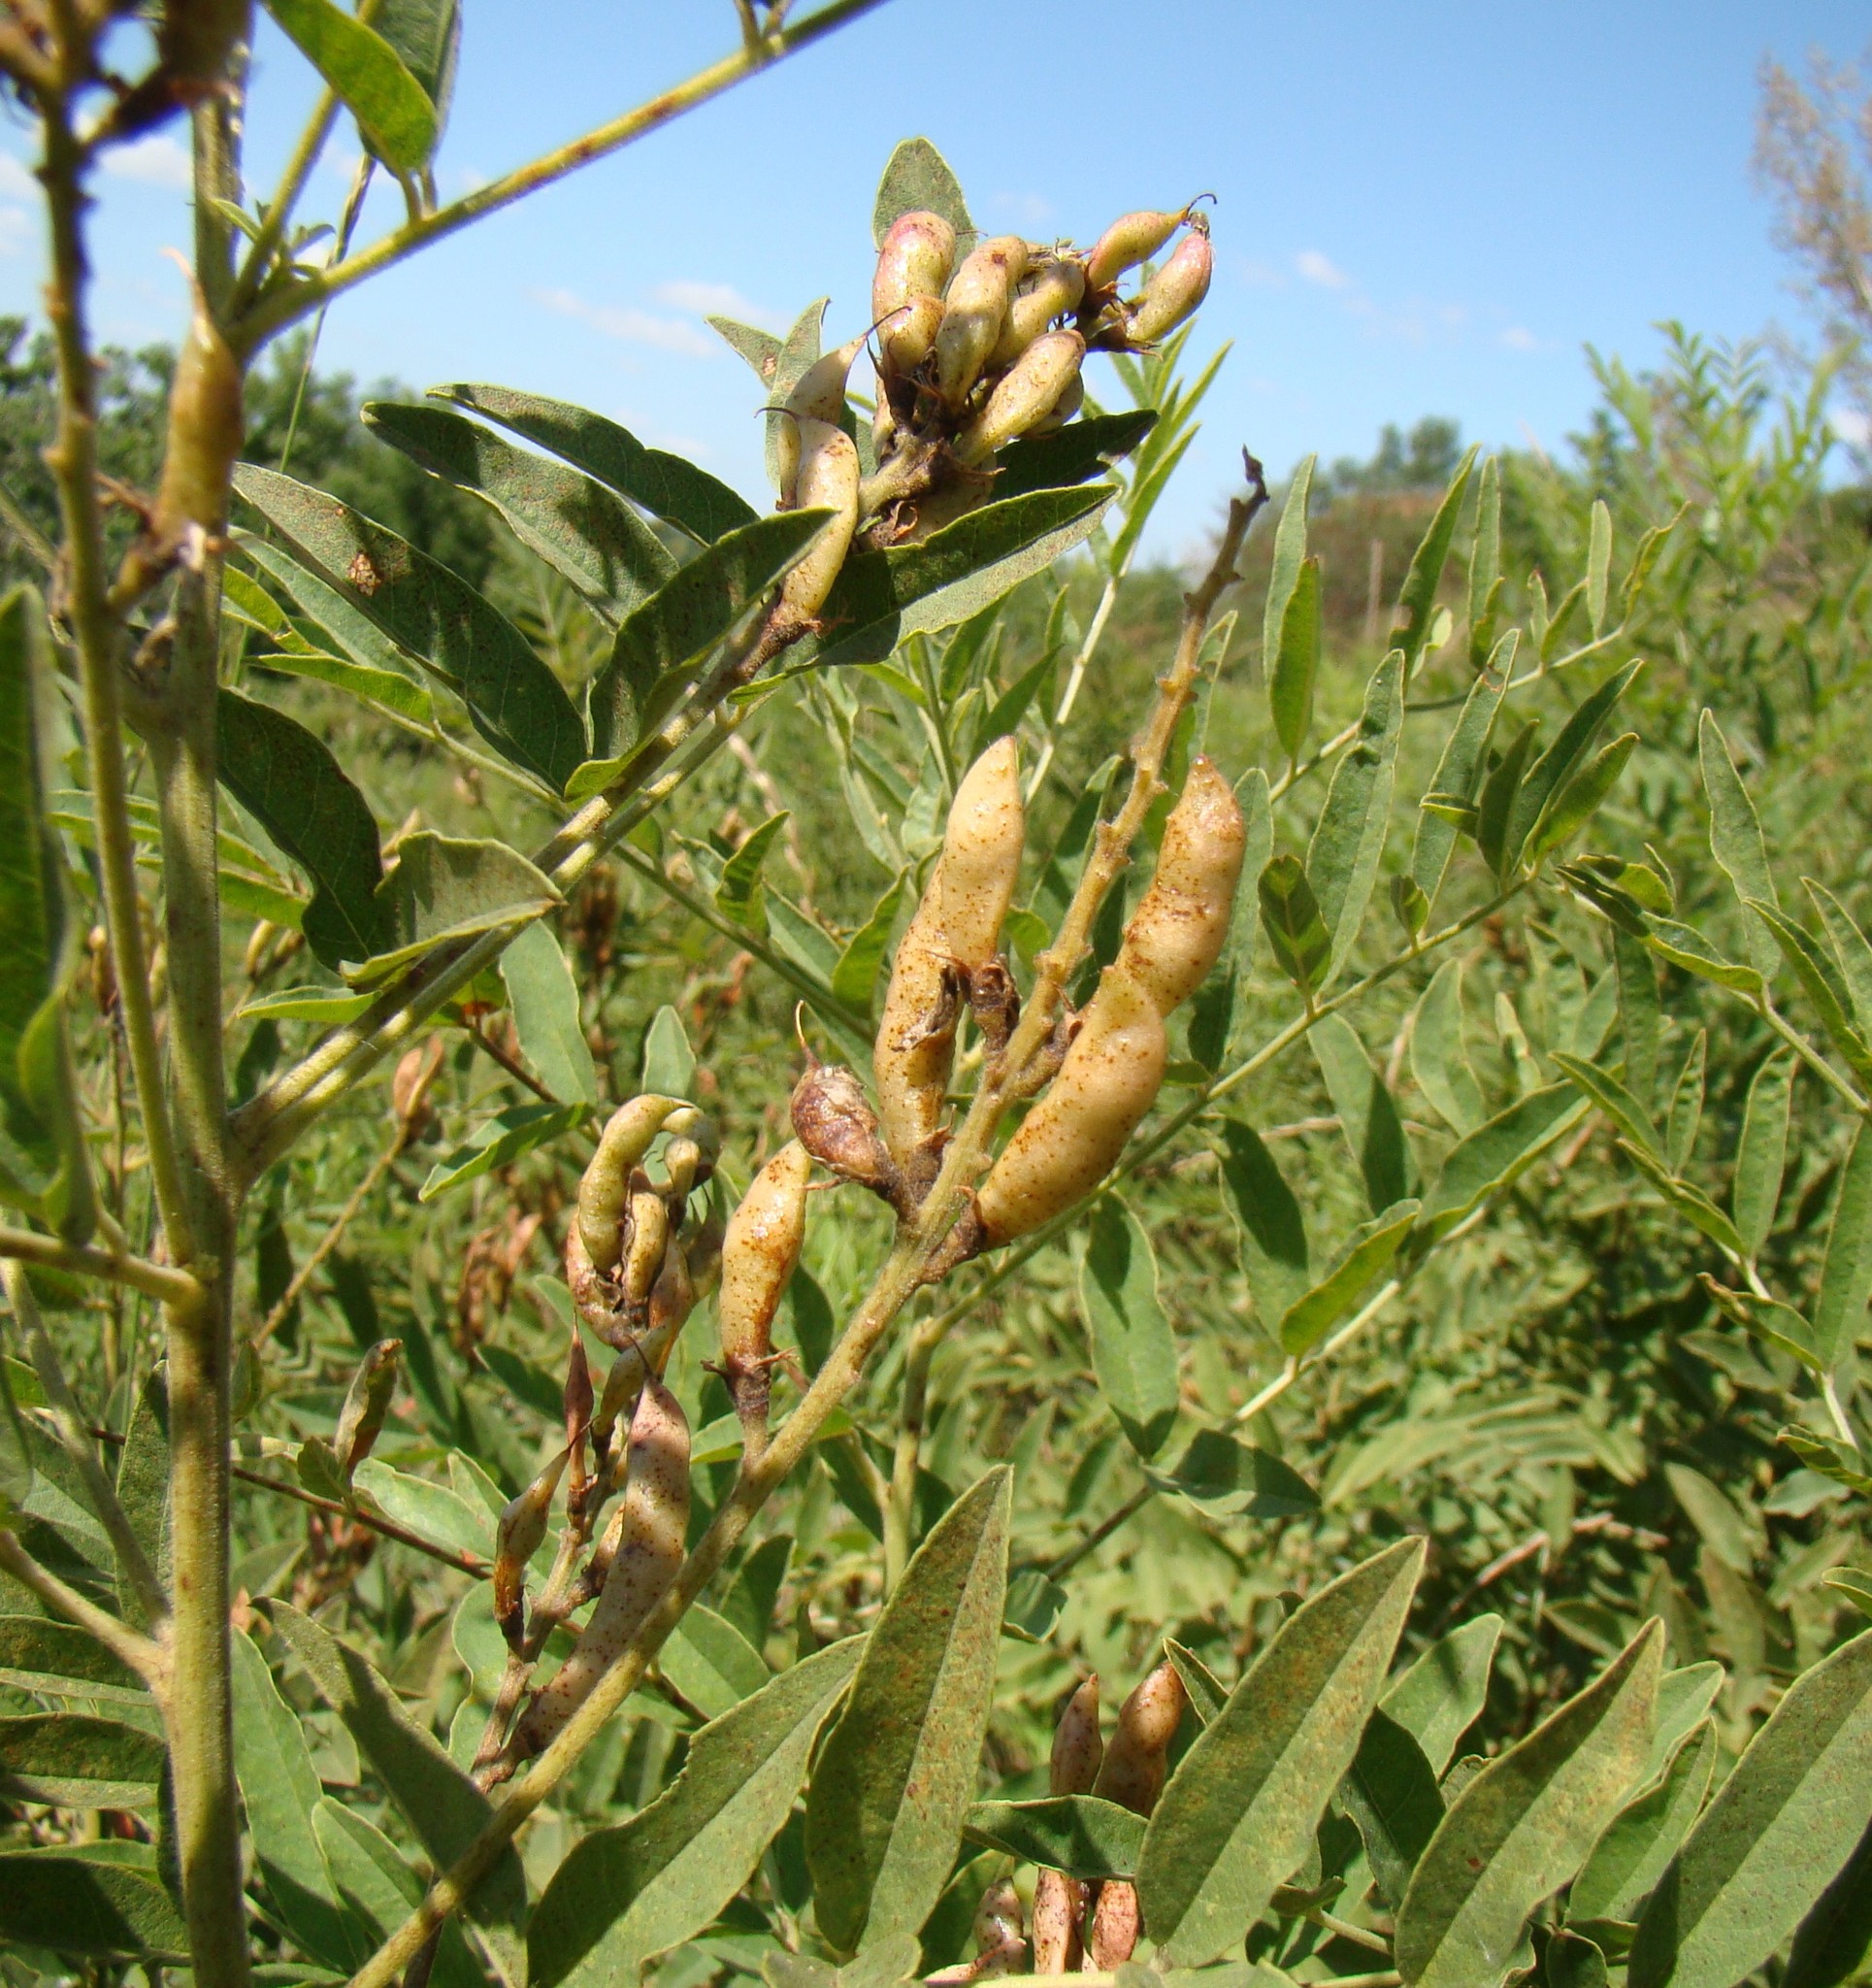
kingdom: Plantae
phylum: Tracheophyta
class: Magnoliopsida
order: Fabales
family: Fabaceae
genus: Glycyrrhiza
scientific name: Glycyrrhiza glabra
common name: Liquorice
